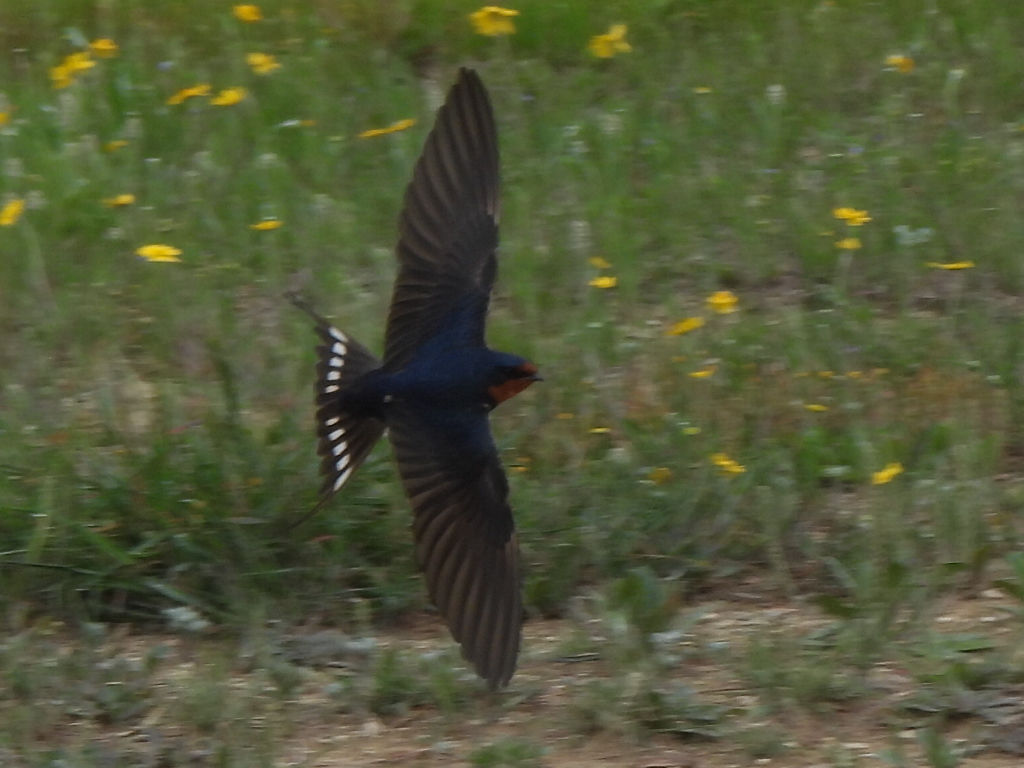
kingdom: Animalia
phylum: Chordata
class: Aves
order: Passeriformes
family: Hirundinidae
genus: Hirundo
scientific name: Hirundo rustica
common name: Barn swallow
